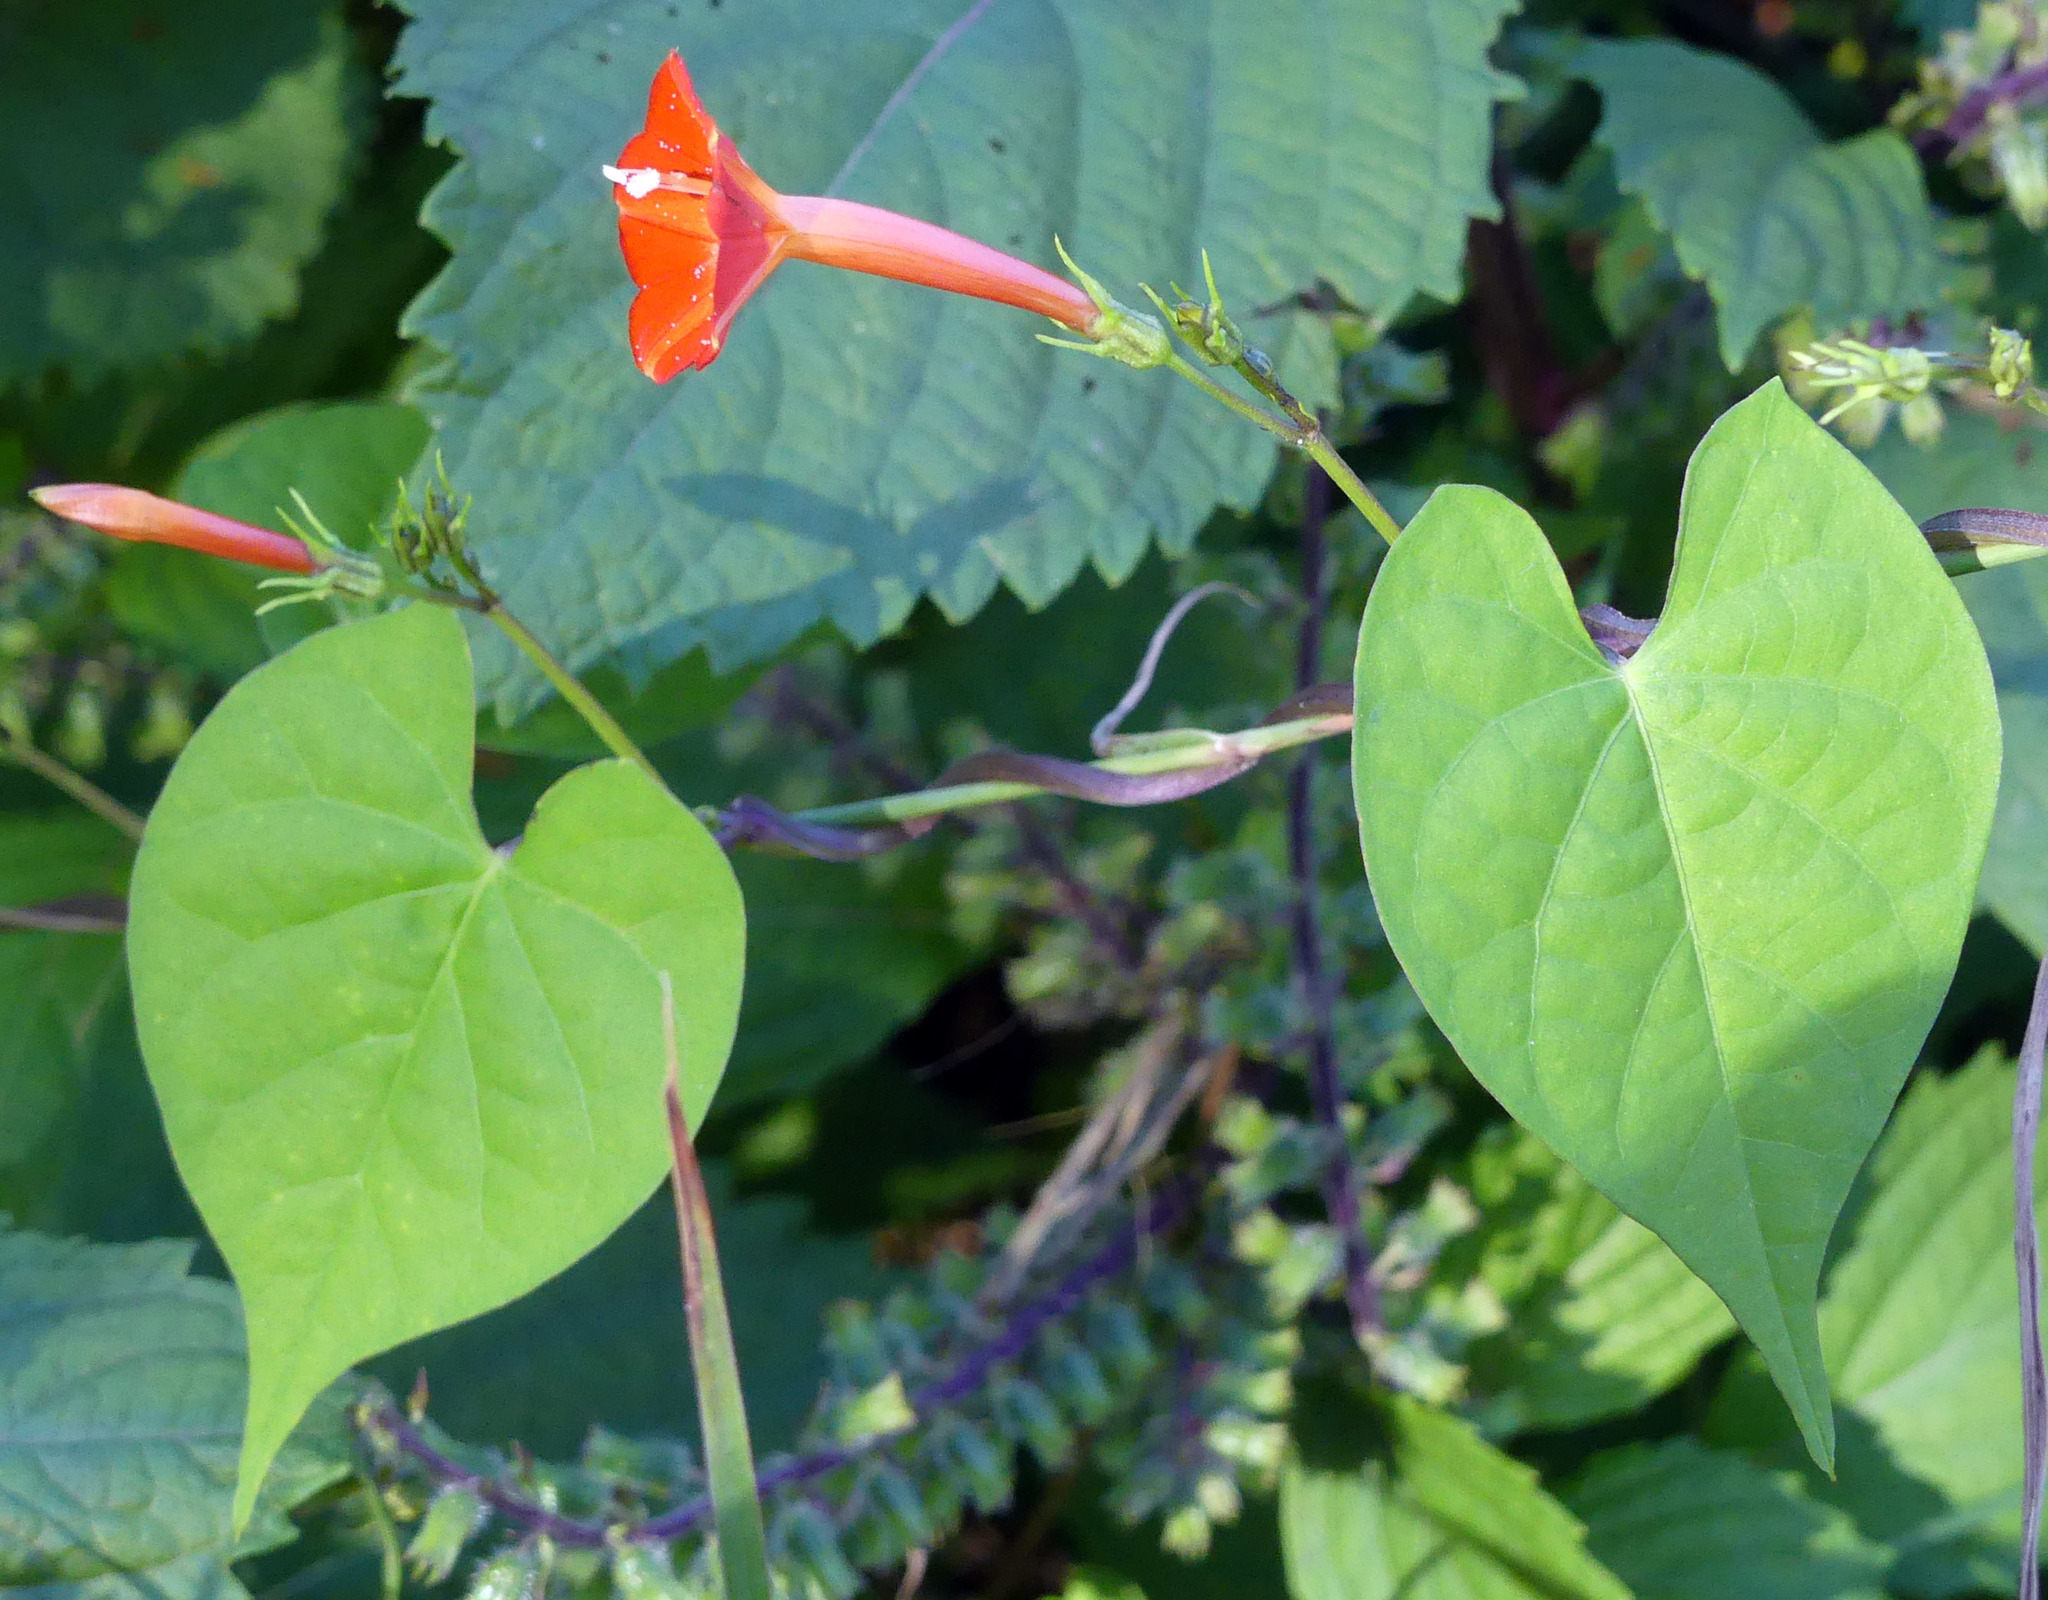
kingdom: Plantae
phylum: Tracheophyta
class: Magnoliopsida
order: Solanales
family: Convolvulaceae
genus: Ipomoea
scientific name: Ipomoea coccinea
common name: Red morning-glory
